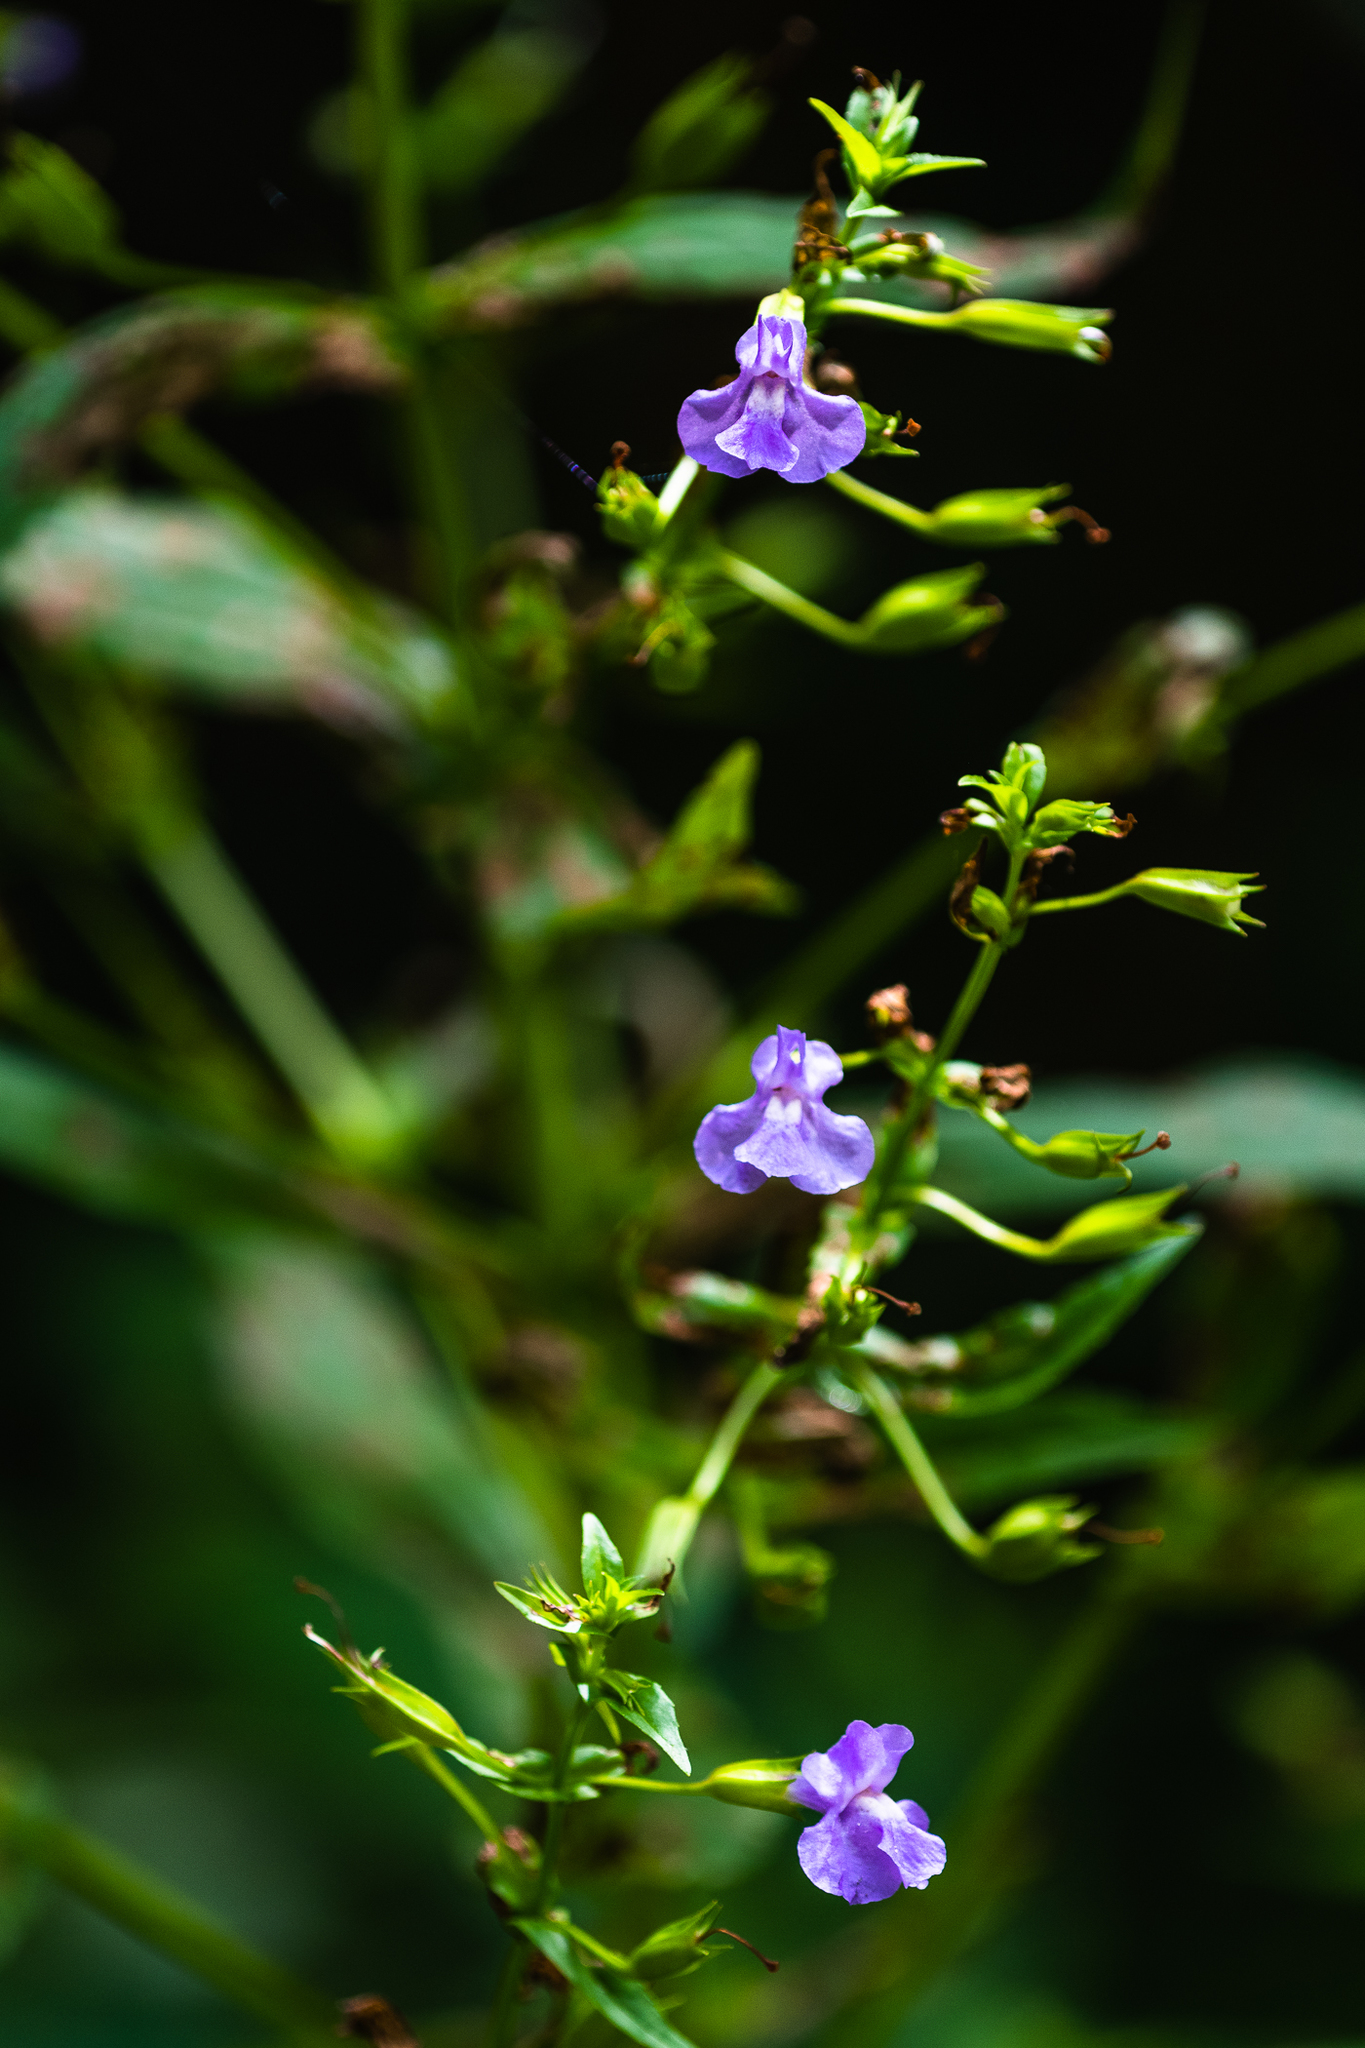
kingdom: Plantae
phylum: Tracheophyta
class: Magnoliopsida
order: Lamiales
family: Phrymaceae
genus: Mimulus
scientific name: Mimulus ringens
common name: Allegheny monkeyflower
